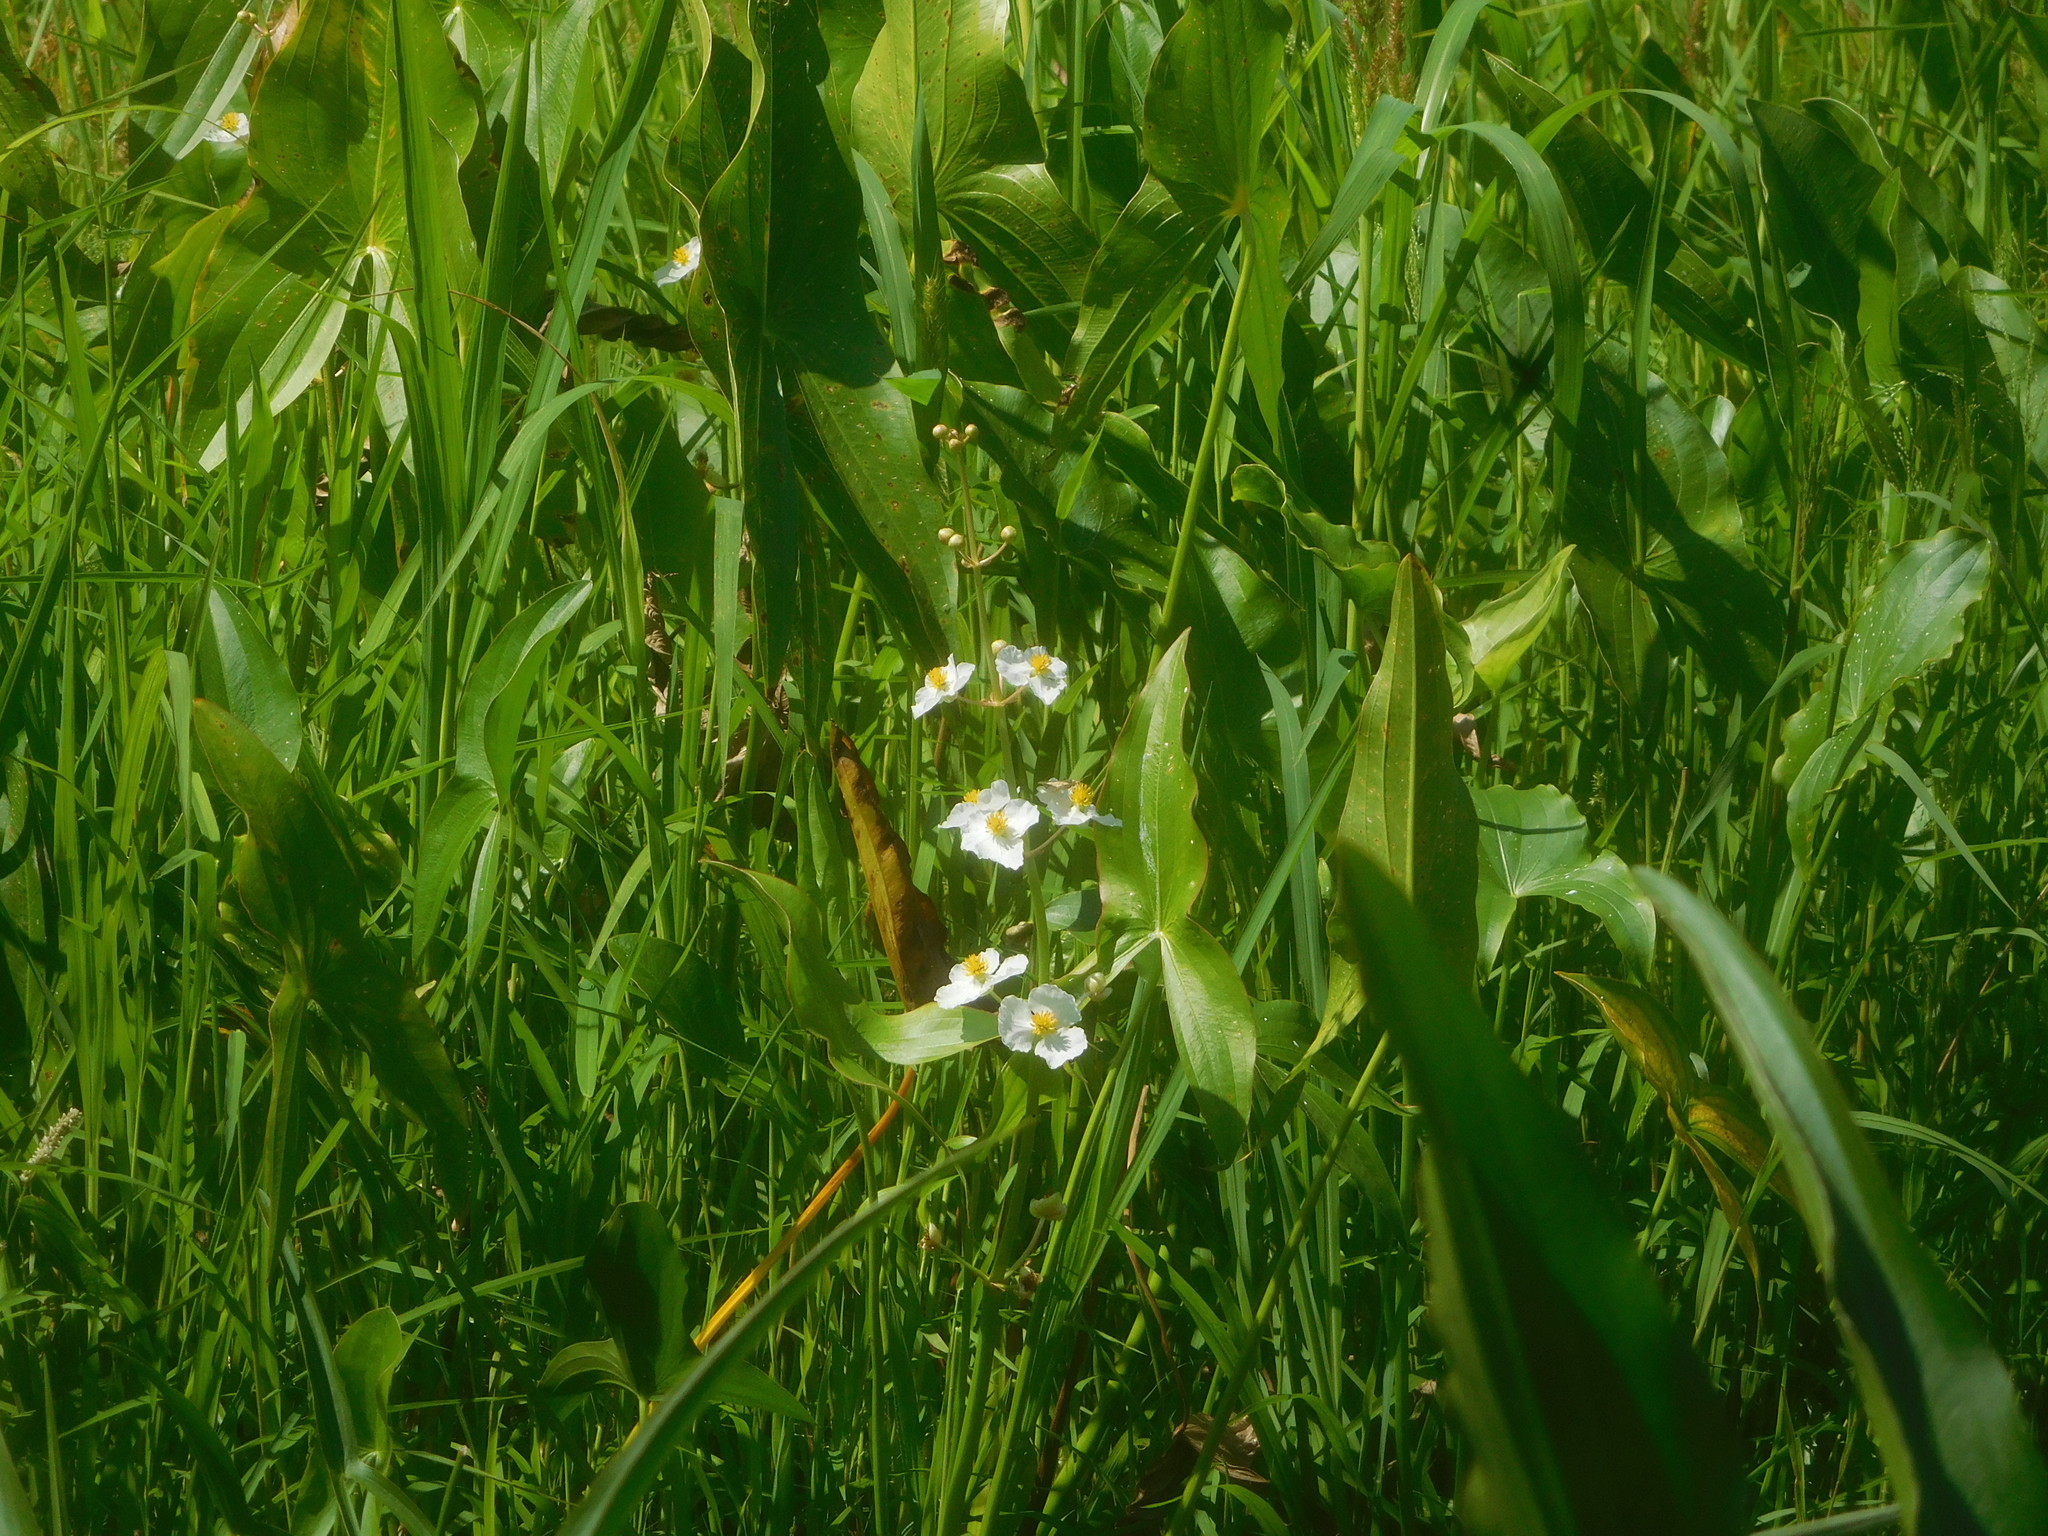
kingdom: Plantae
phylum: Tracheophyta
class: Liliopsida
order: Alismatales
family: Alismataceae
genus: Sagittaria
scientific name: Sagittaria latifolia
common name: Duck-potato
